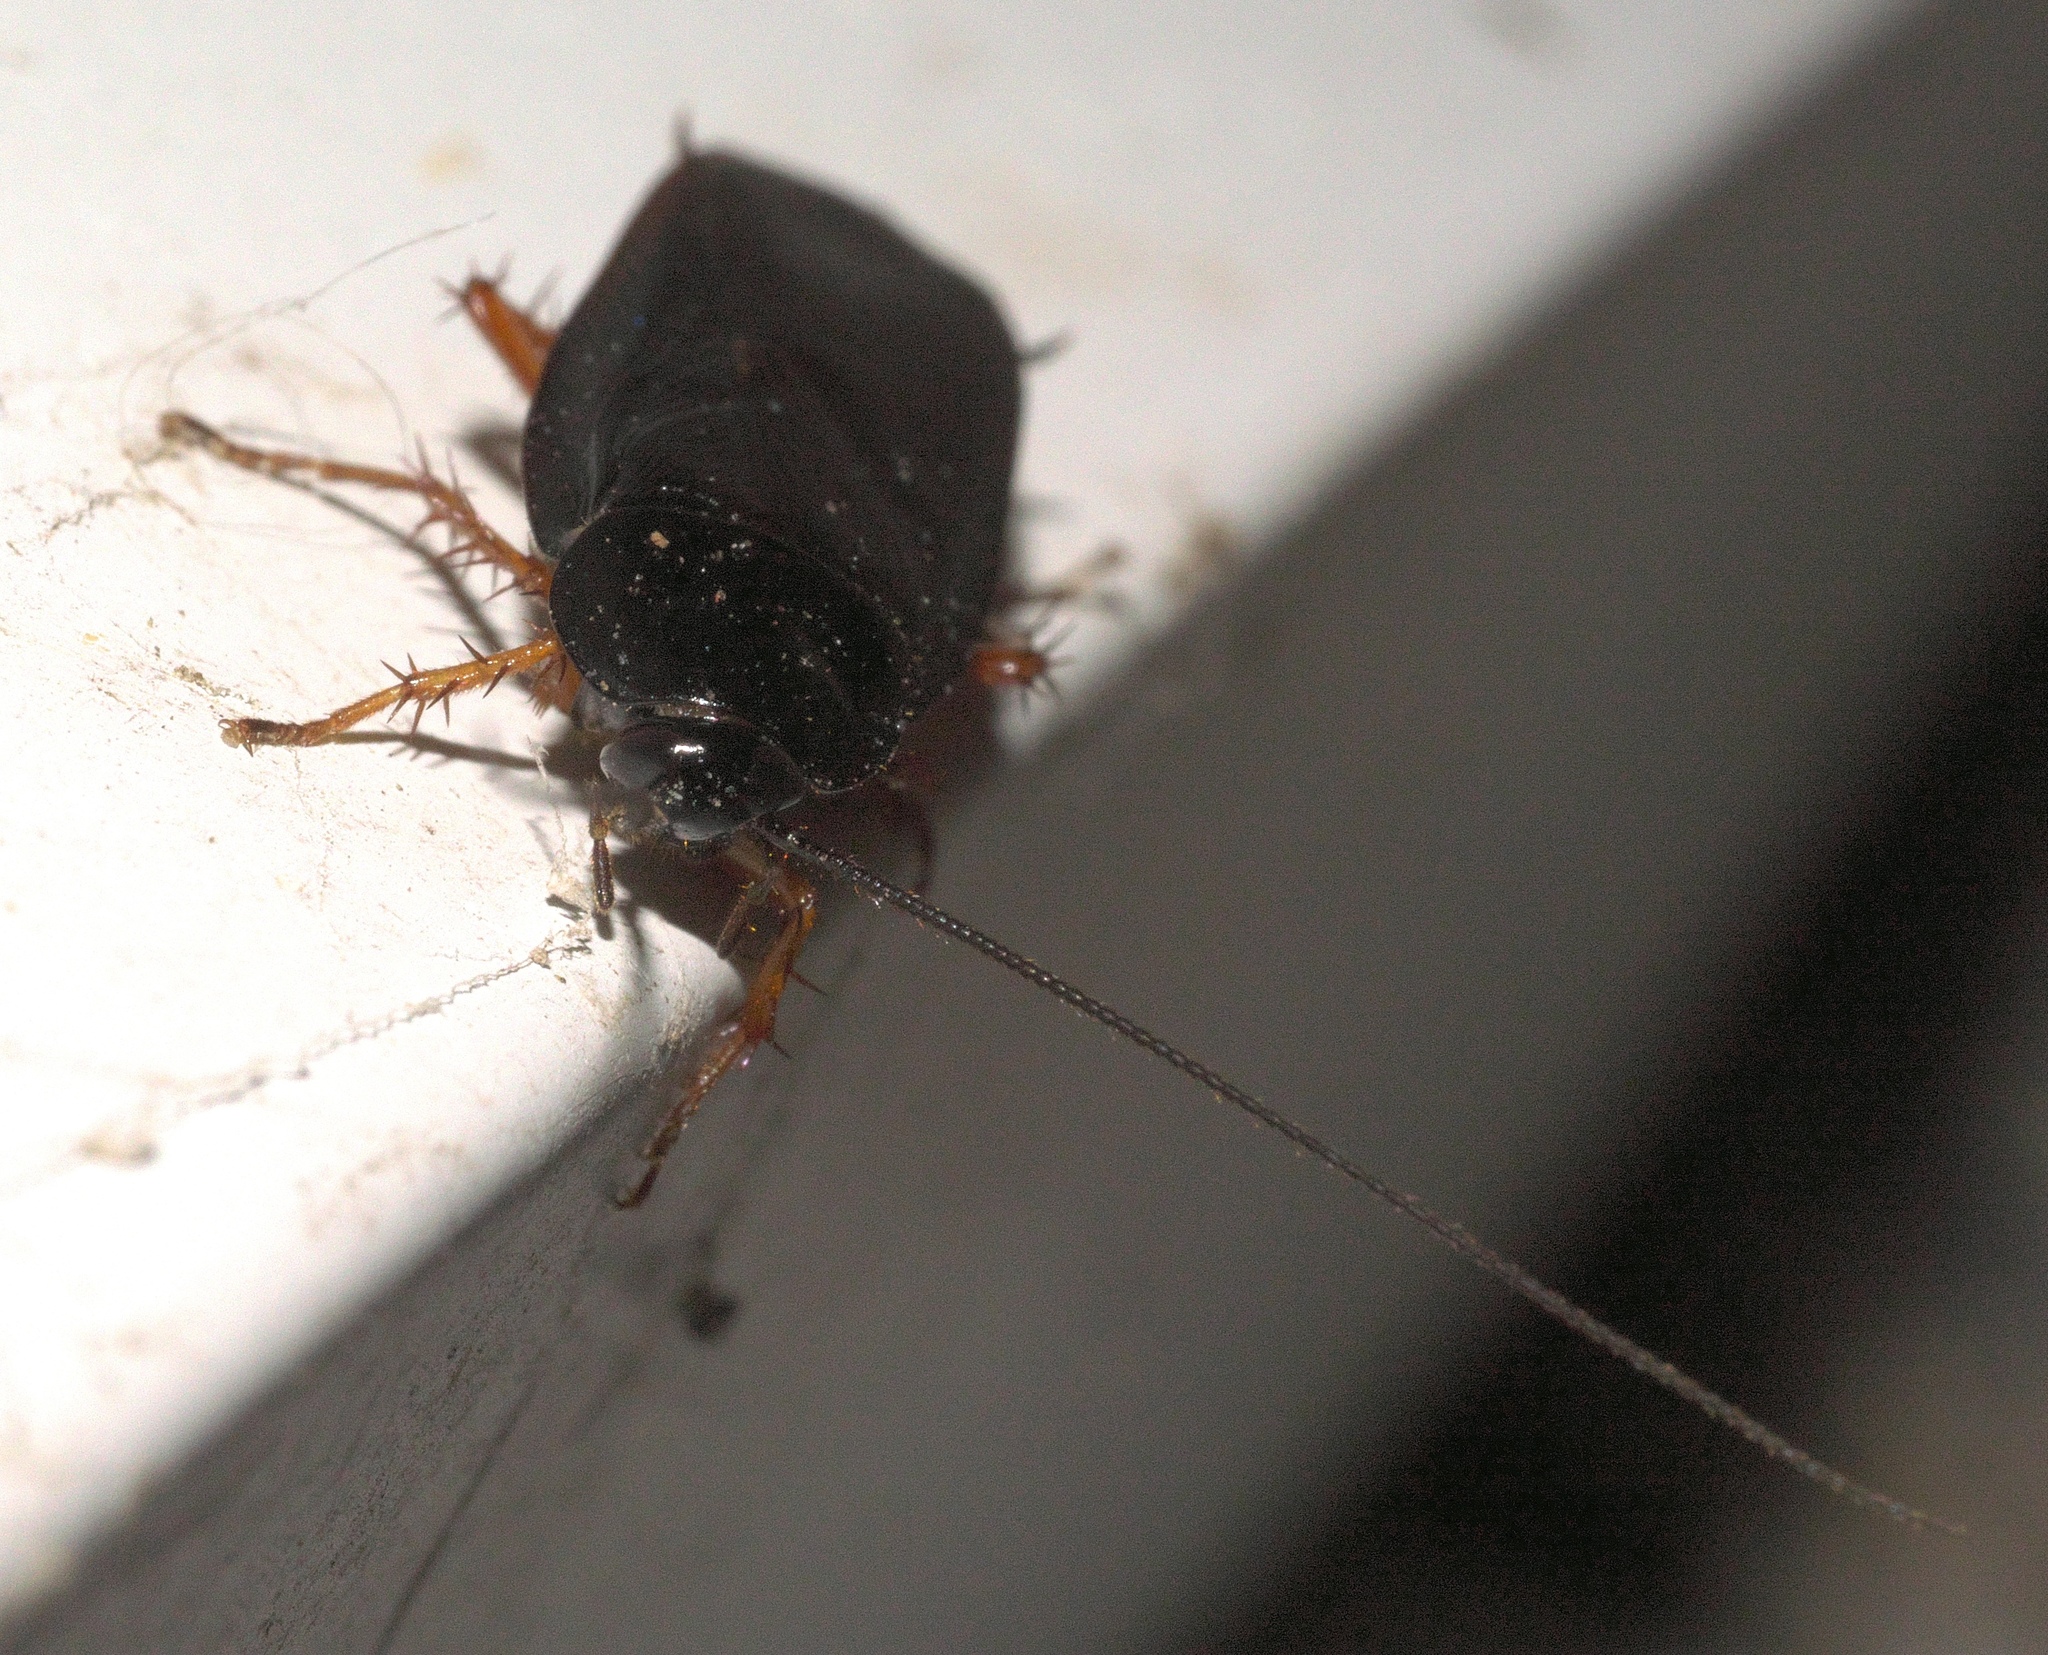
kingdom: Animalia
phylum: Arthropoda
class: Insecta
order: Blattodea
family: Ectobiidae
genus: Ischnoptera
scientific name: Ischnoptera deropeltiformis
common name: Dark wood cockroach
